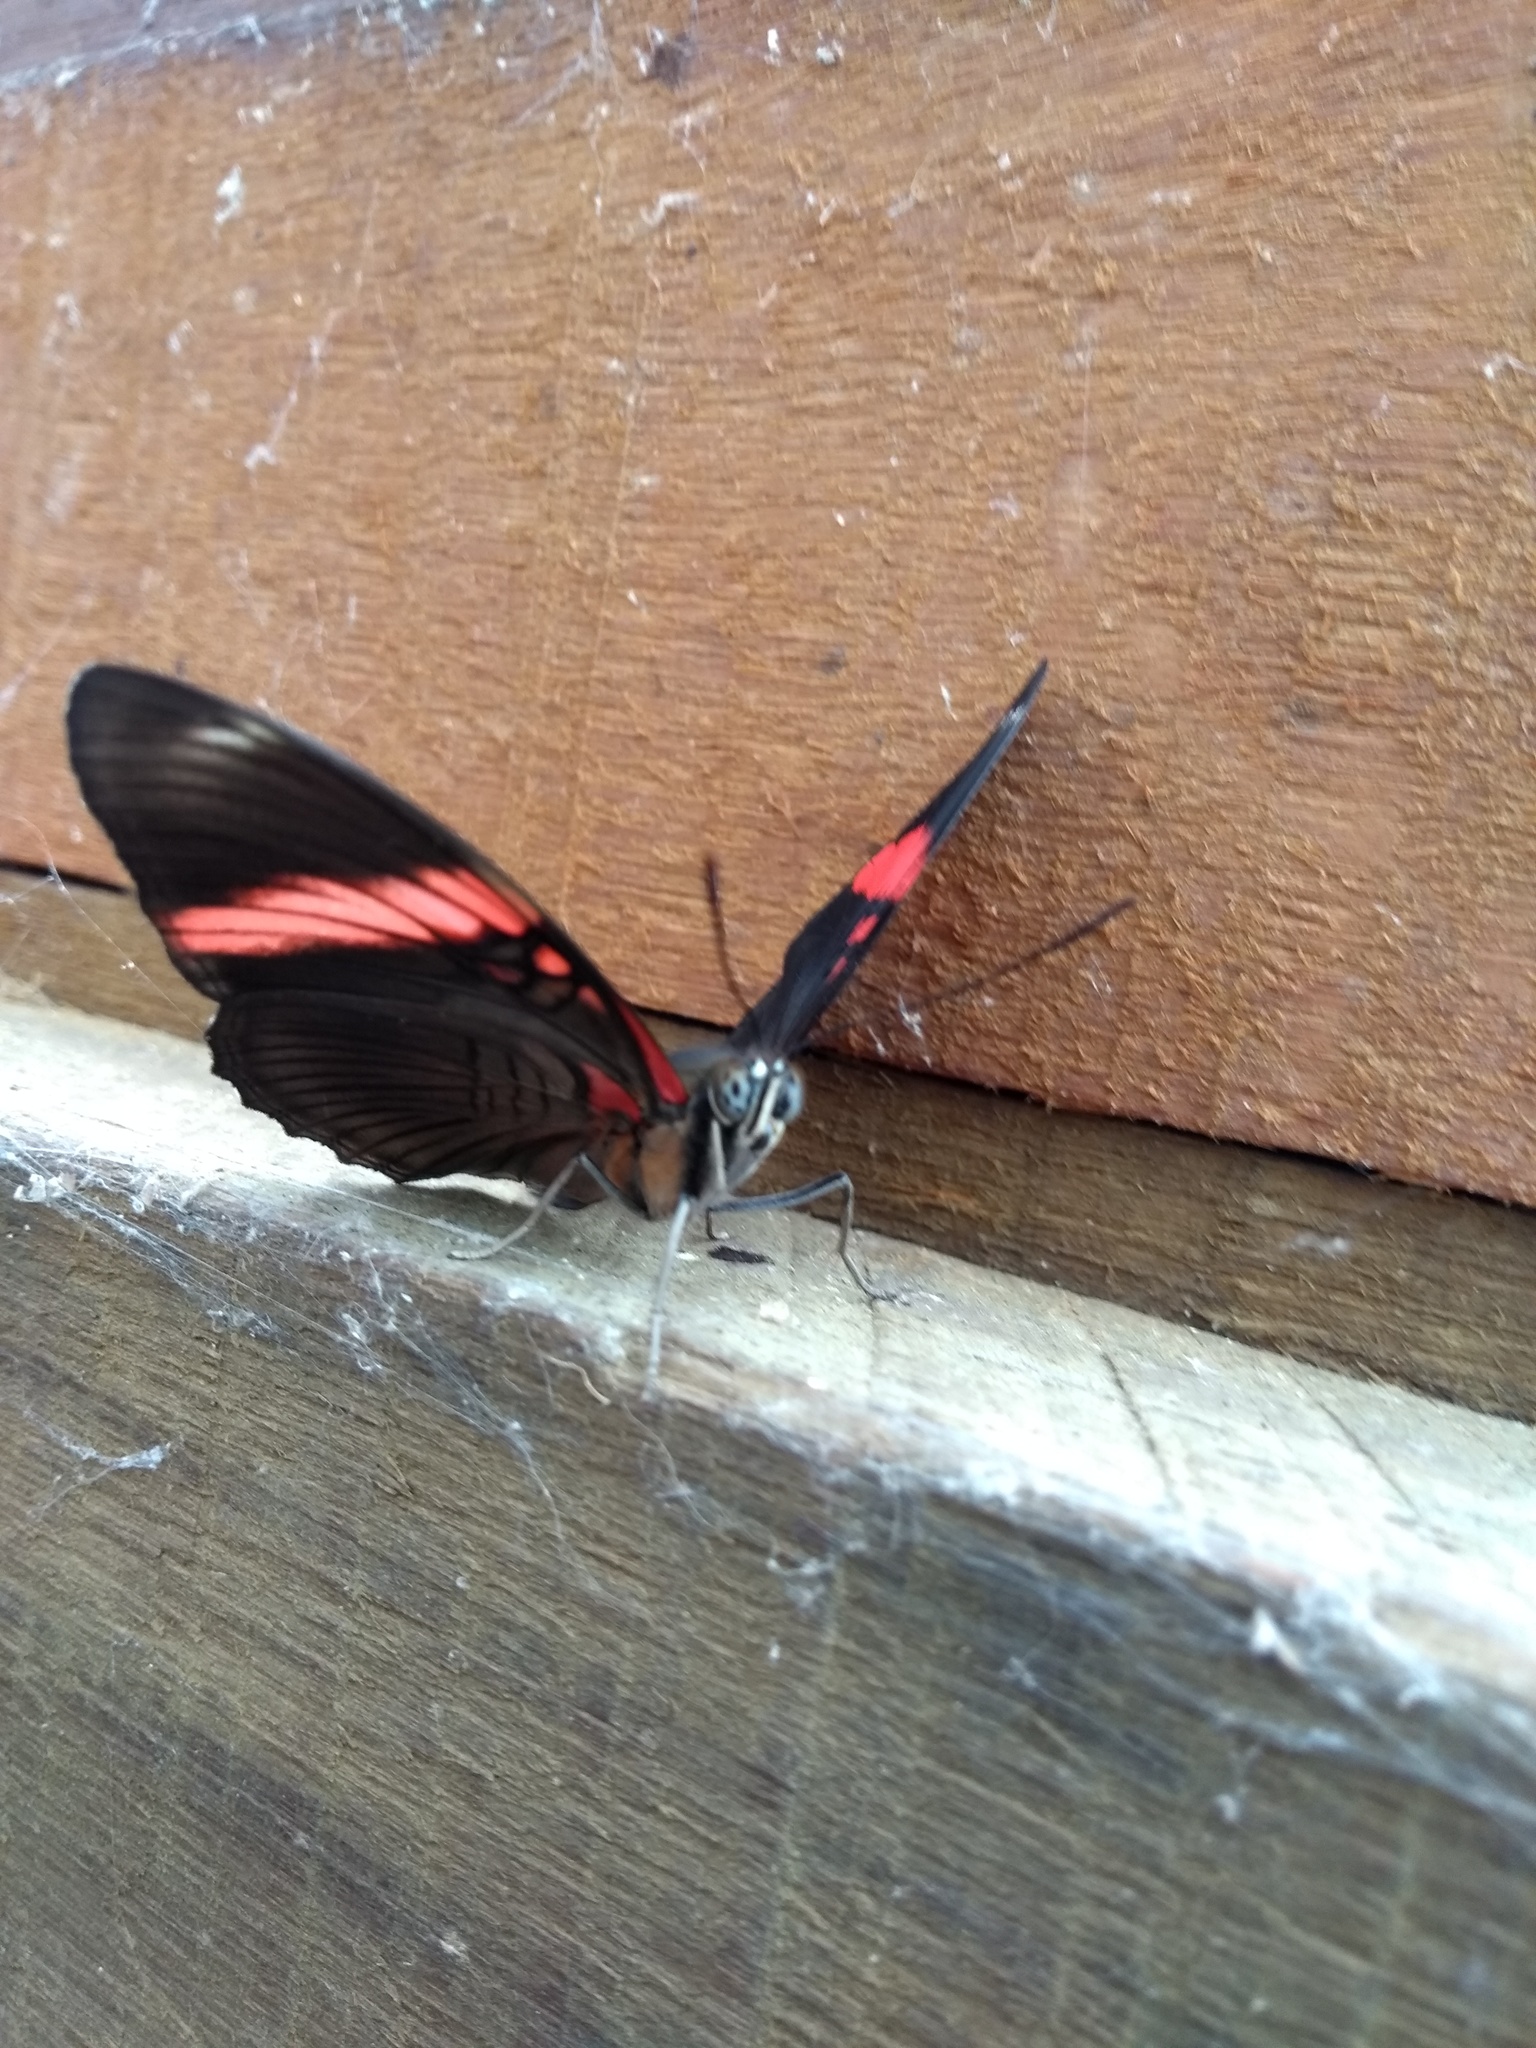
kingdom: Animalia
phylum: Arthropoda
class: Insecta
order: Lepidoptera
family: Nymphalidae
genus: Limenitis
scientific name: Limenitis isis
